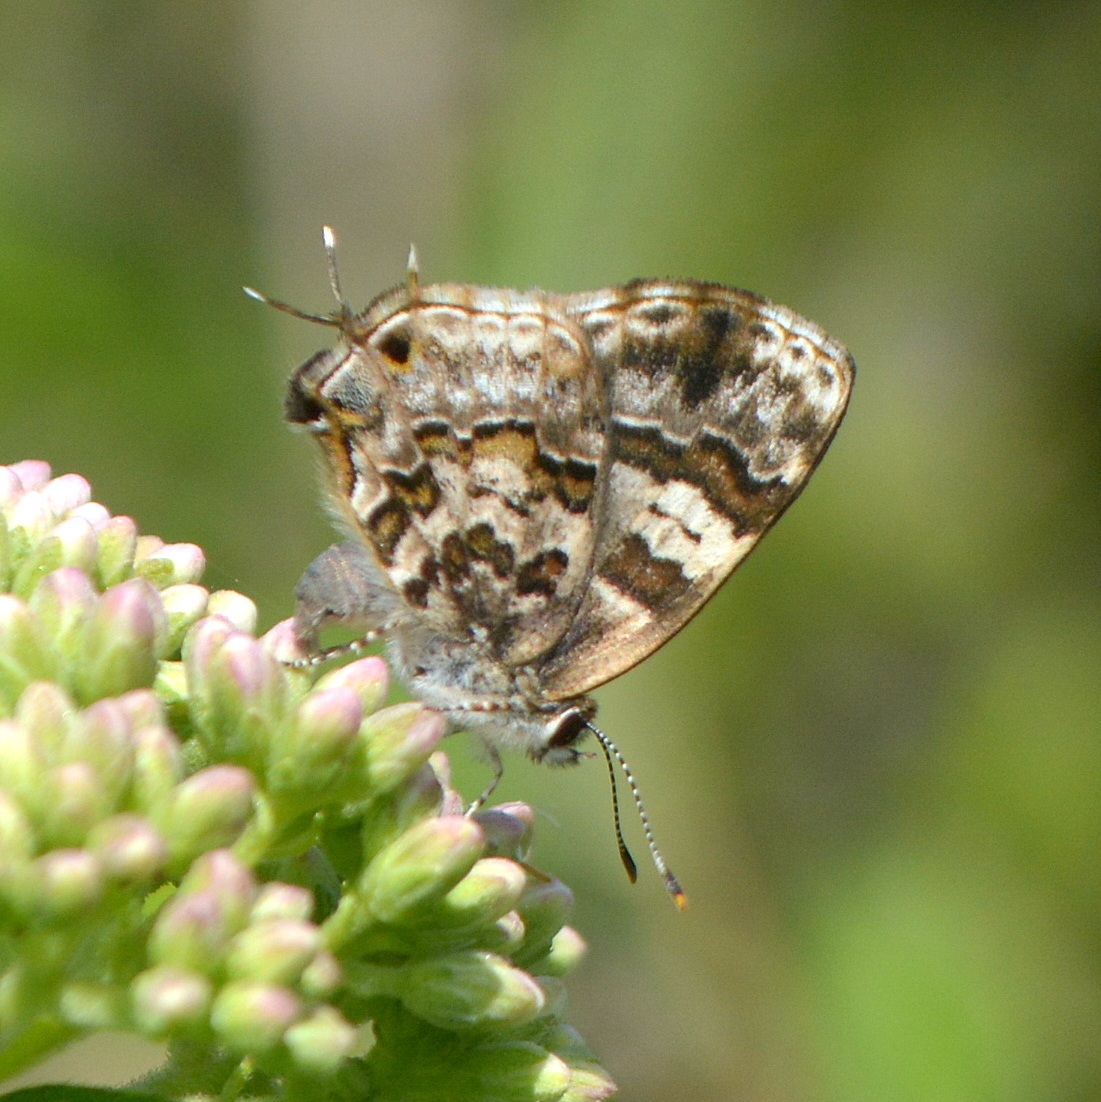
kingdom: Animalia
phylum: Arthropoda
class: Insecta
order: Lepidoptera
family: Lycaenidae
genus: Aubergina
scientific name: Aubergina vanessoides
